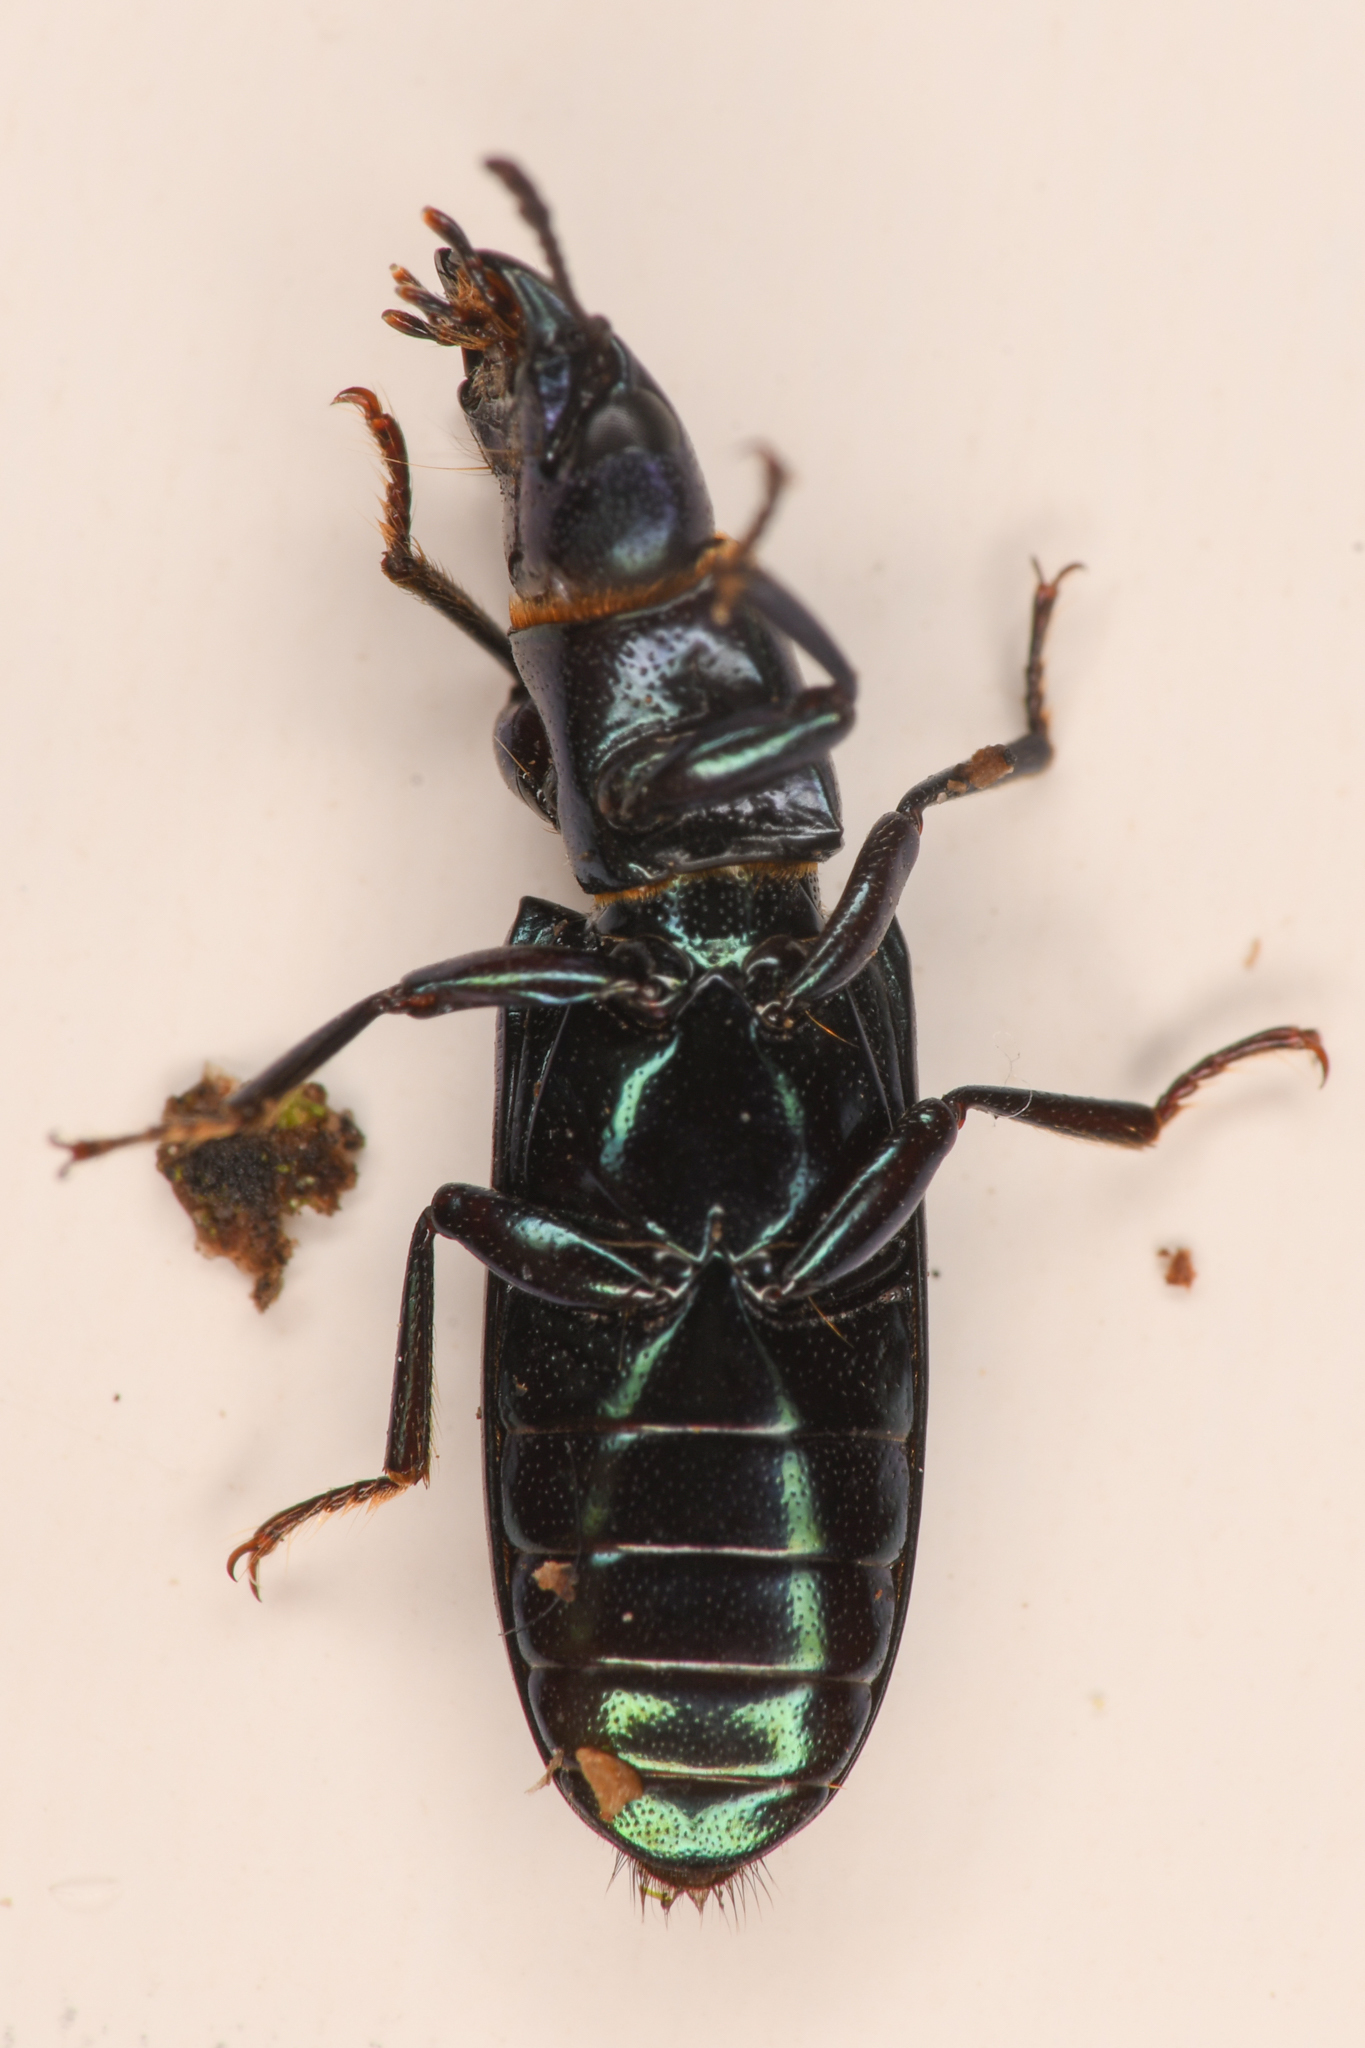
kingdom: Animalia
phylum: Arthropoda
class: Insecta
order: Coleoptera
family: Trogossitidae
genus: Temnoscheila
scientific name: Temnoscheila chlorodia
